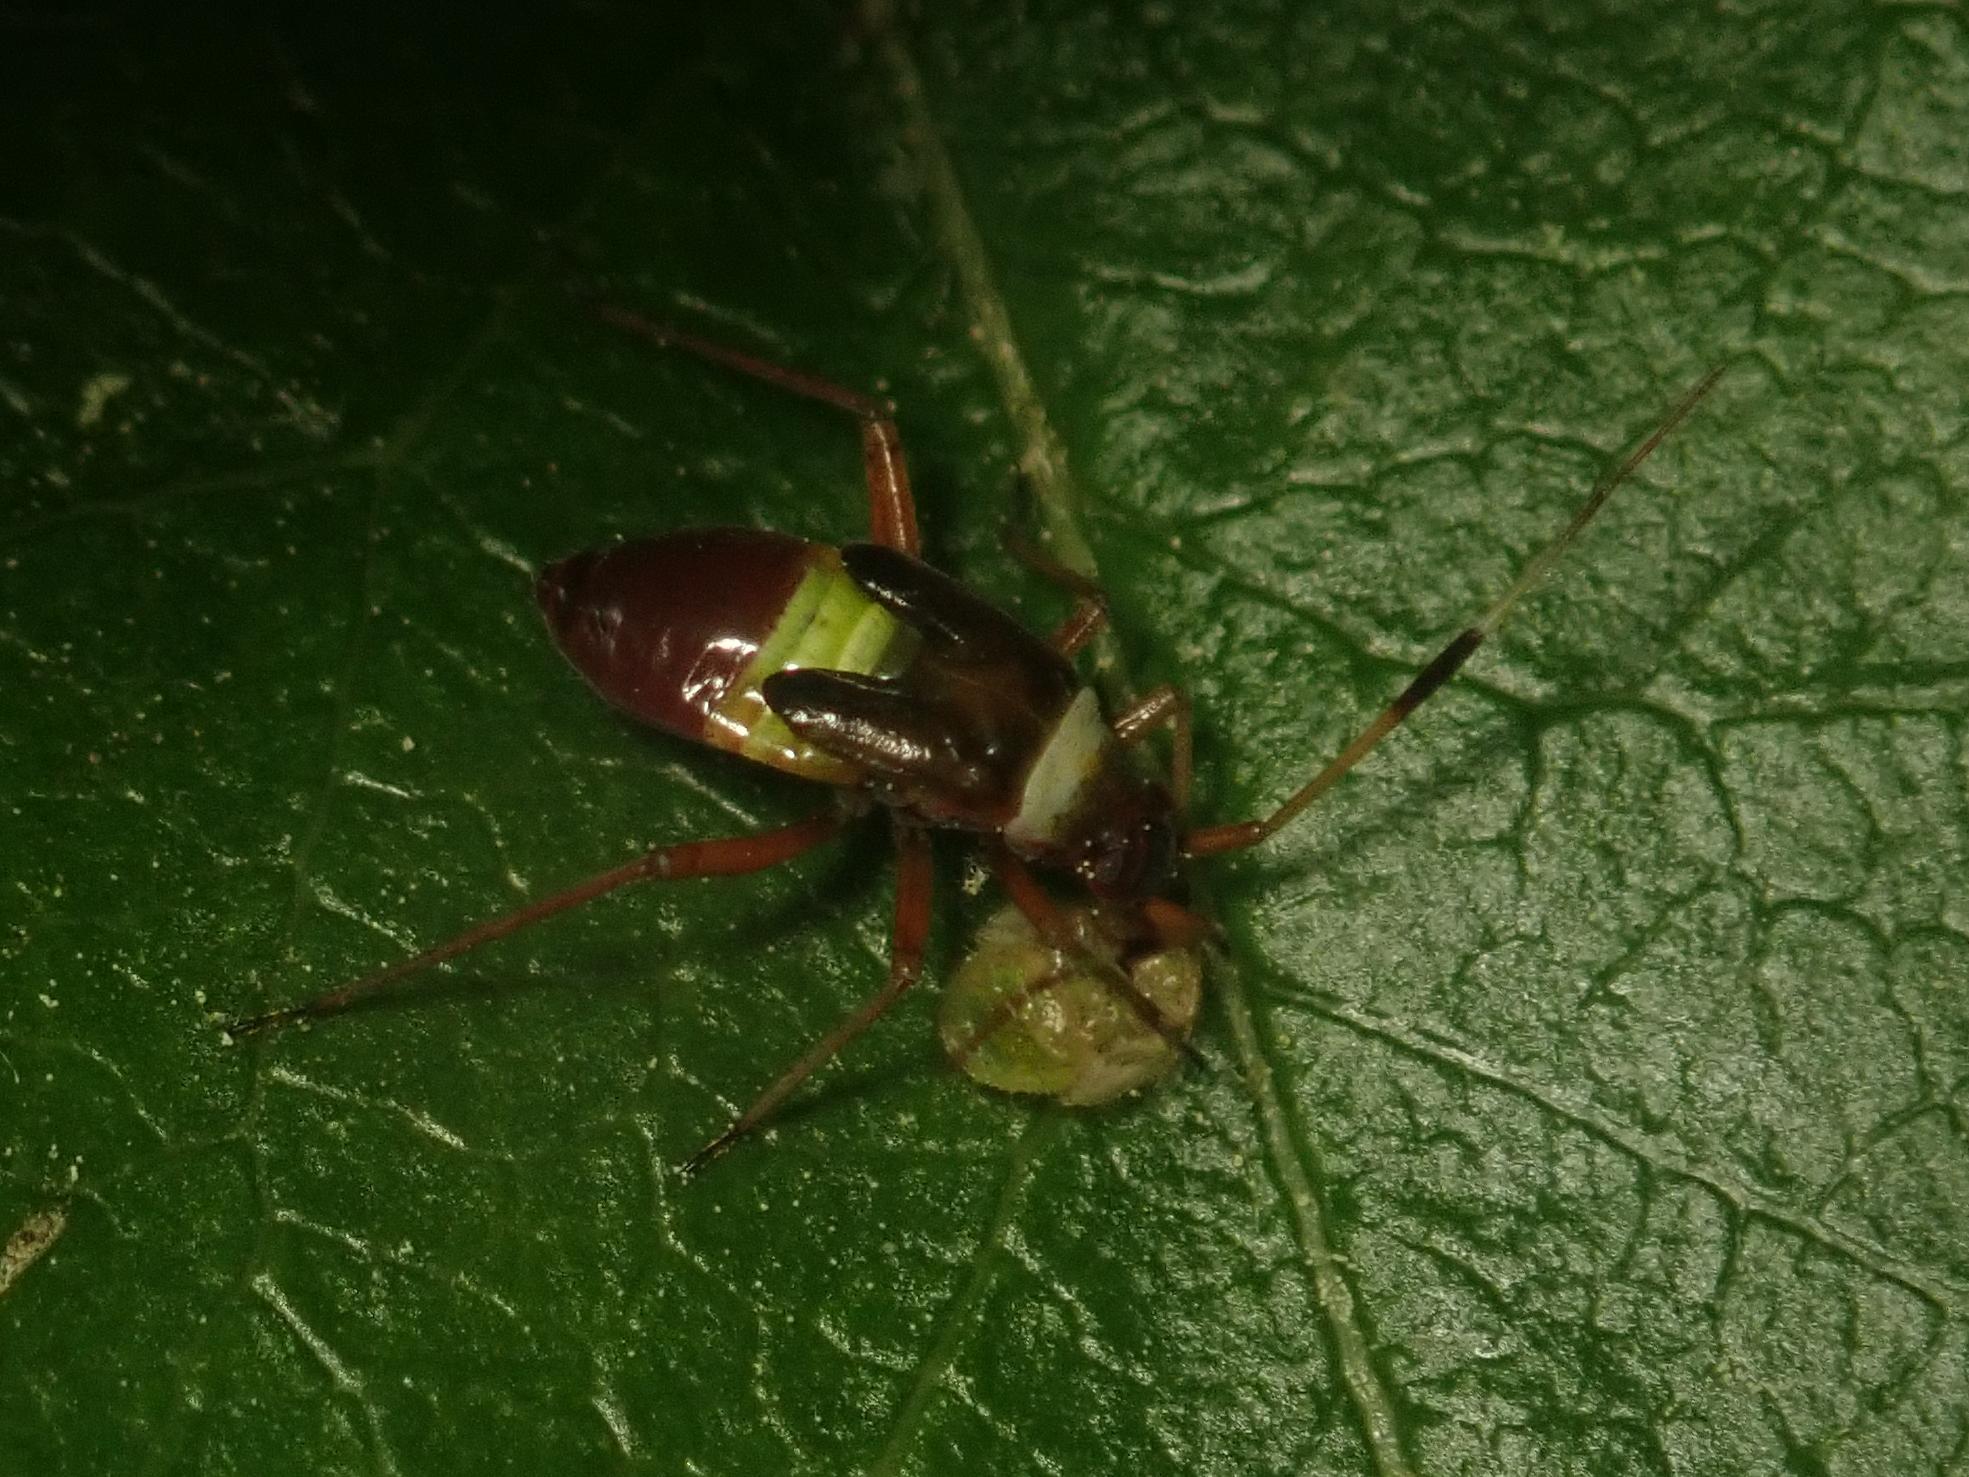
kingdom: Animalia
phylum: Arthropoda
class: Insecta
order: Hemiptera
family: Miridae
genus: Closterotomus
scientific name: Closterotomus biclavatus
